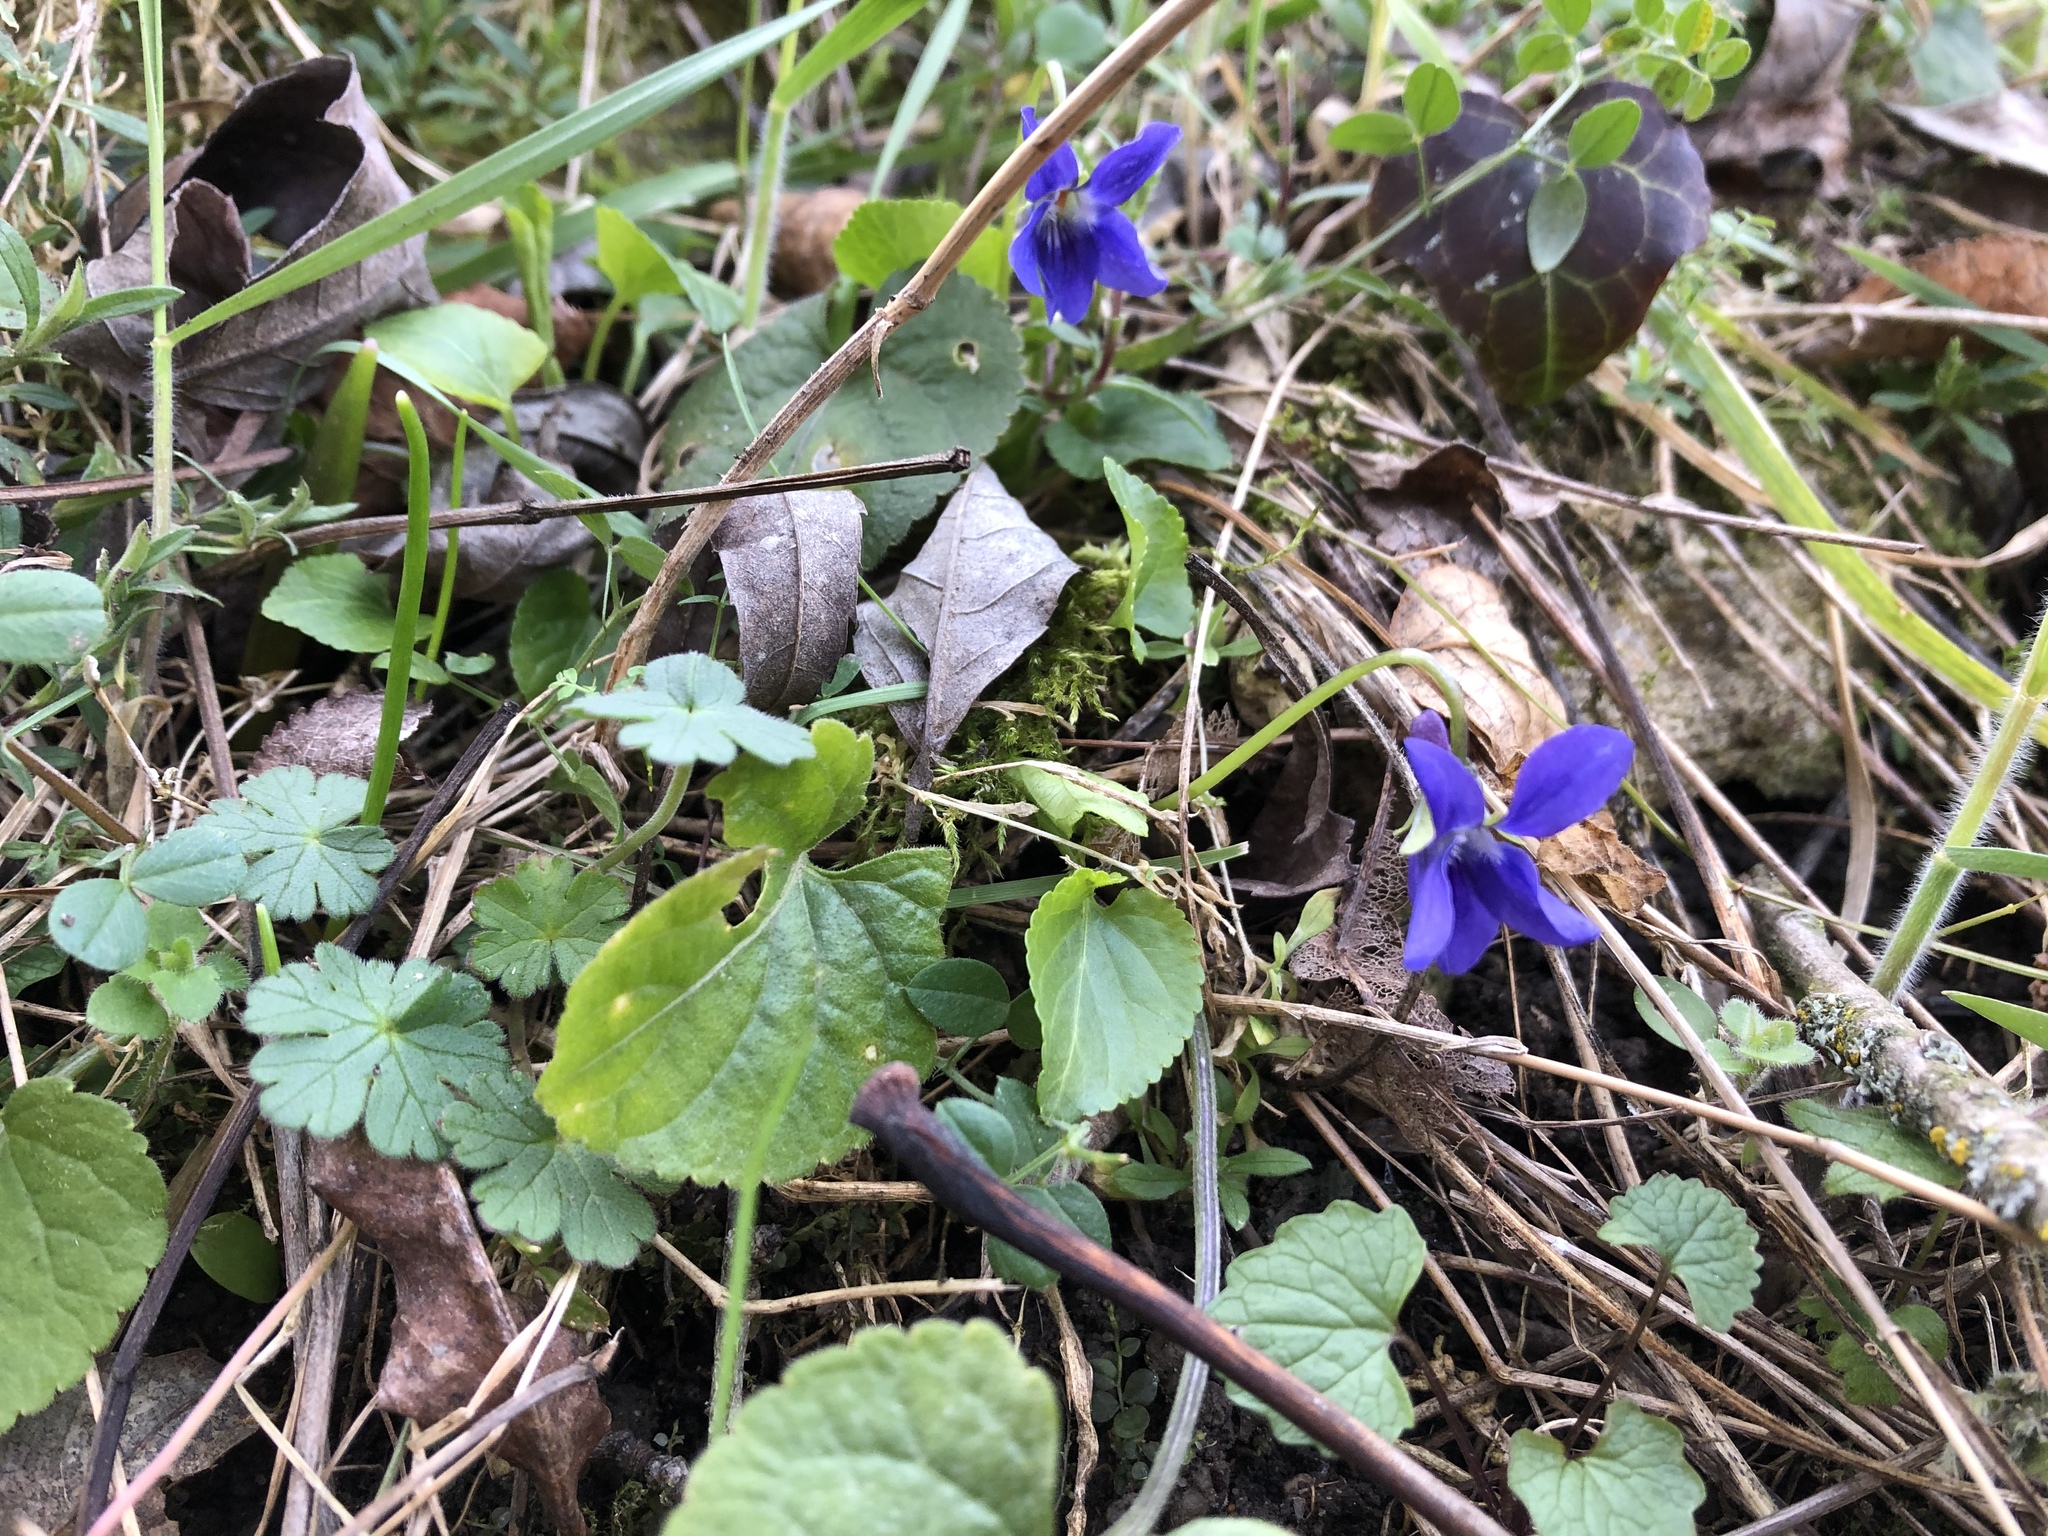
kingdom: Plantae
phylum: Tracheophyta
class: Magnoliopsida
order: Malpighiales
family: Violaceae
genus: Viola
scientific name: Viola odorata
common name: Sweet violet
